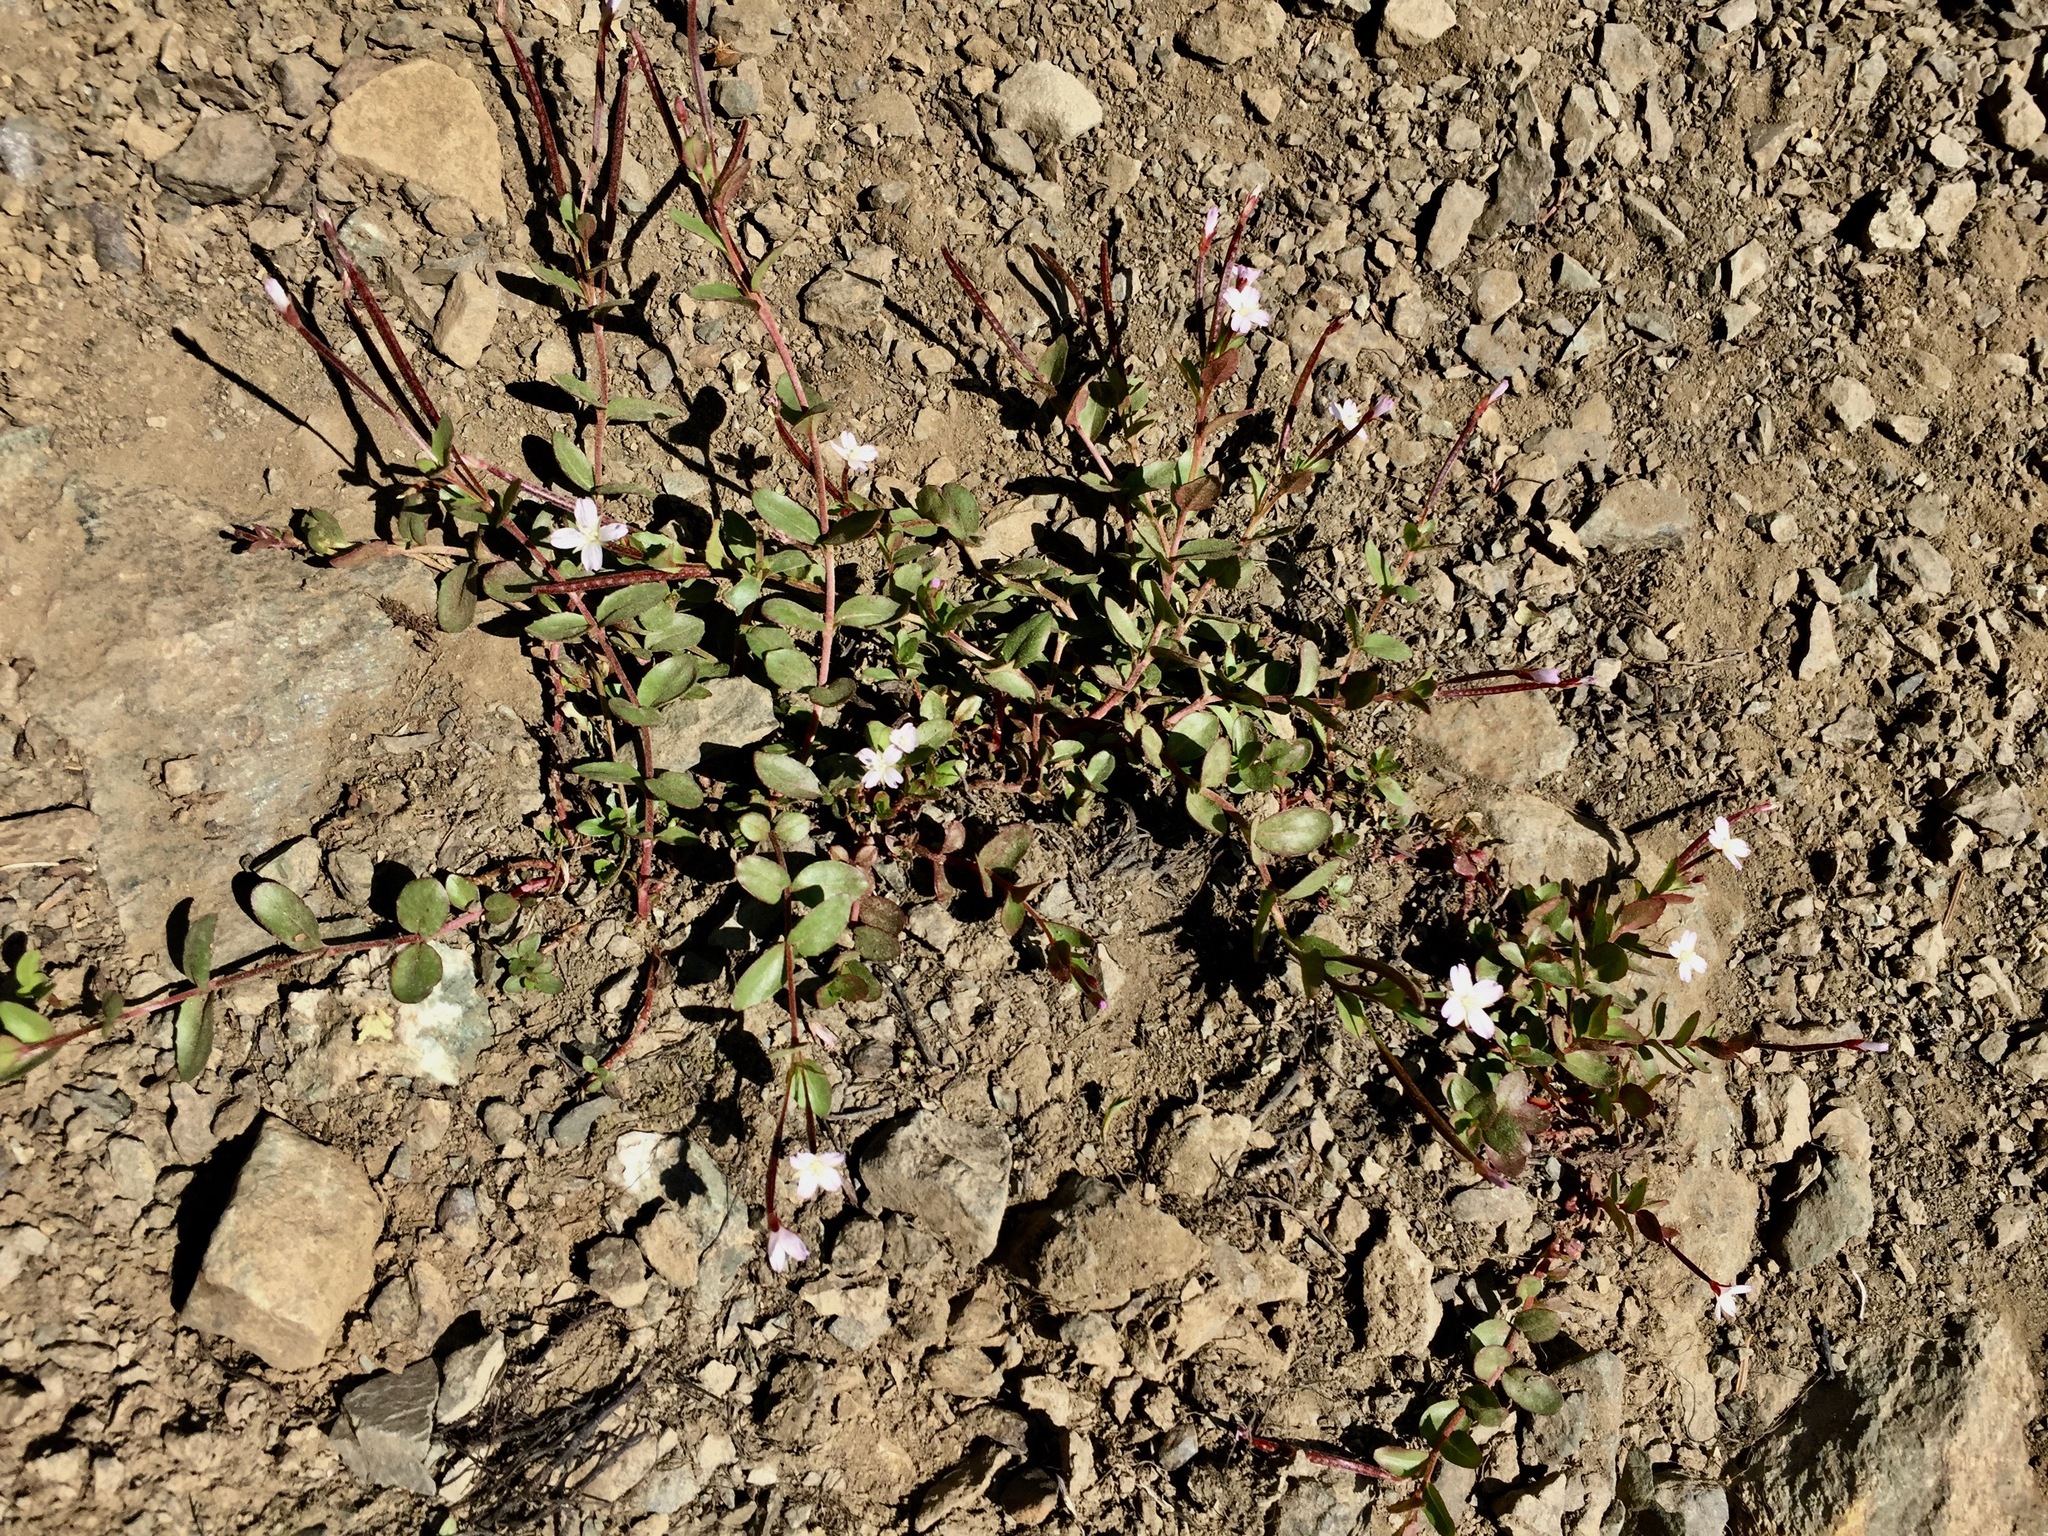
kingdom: Plantae
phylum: Tracheophyta
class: Magnoliopsida
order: Myrtales
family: Onagraceae
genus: Epilobium
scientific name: Epilobium anagallidifolium
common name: Alpine willowherb
